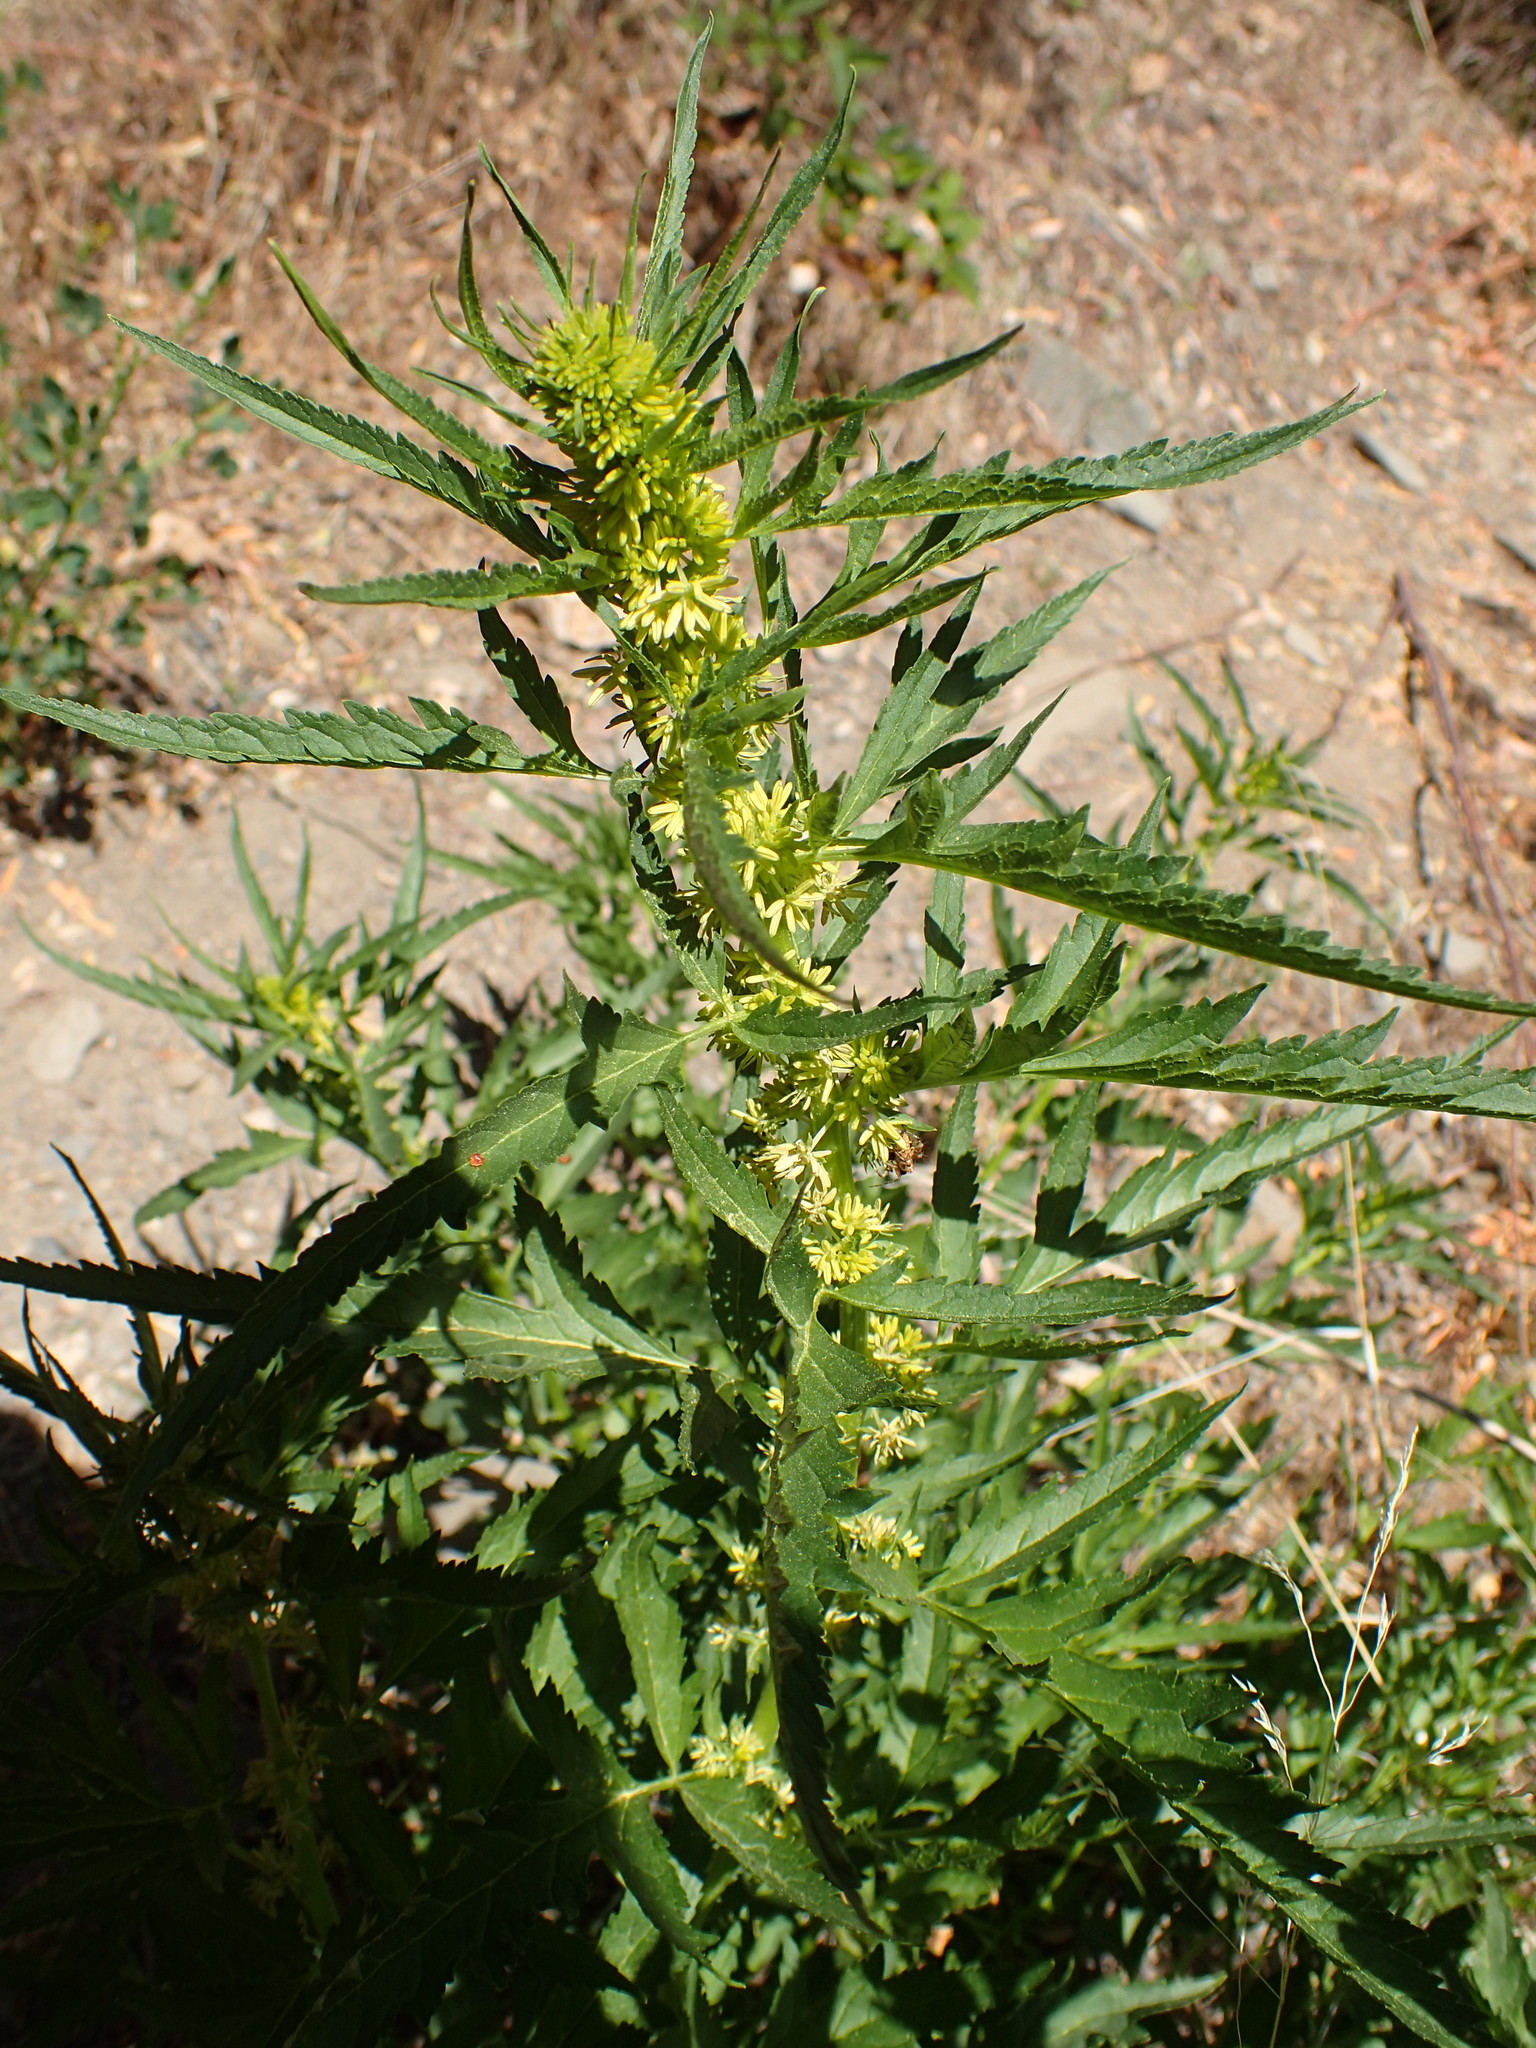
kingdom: Plantae
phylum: Tracheophyta
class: Magnoliopsida
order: Cucurbitales
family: Datiscaceae
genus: Datisca
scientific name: Datisca glomerata
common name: Durango-root
